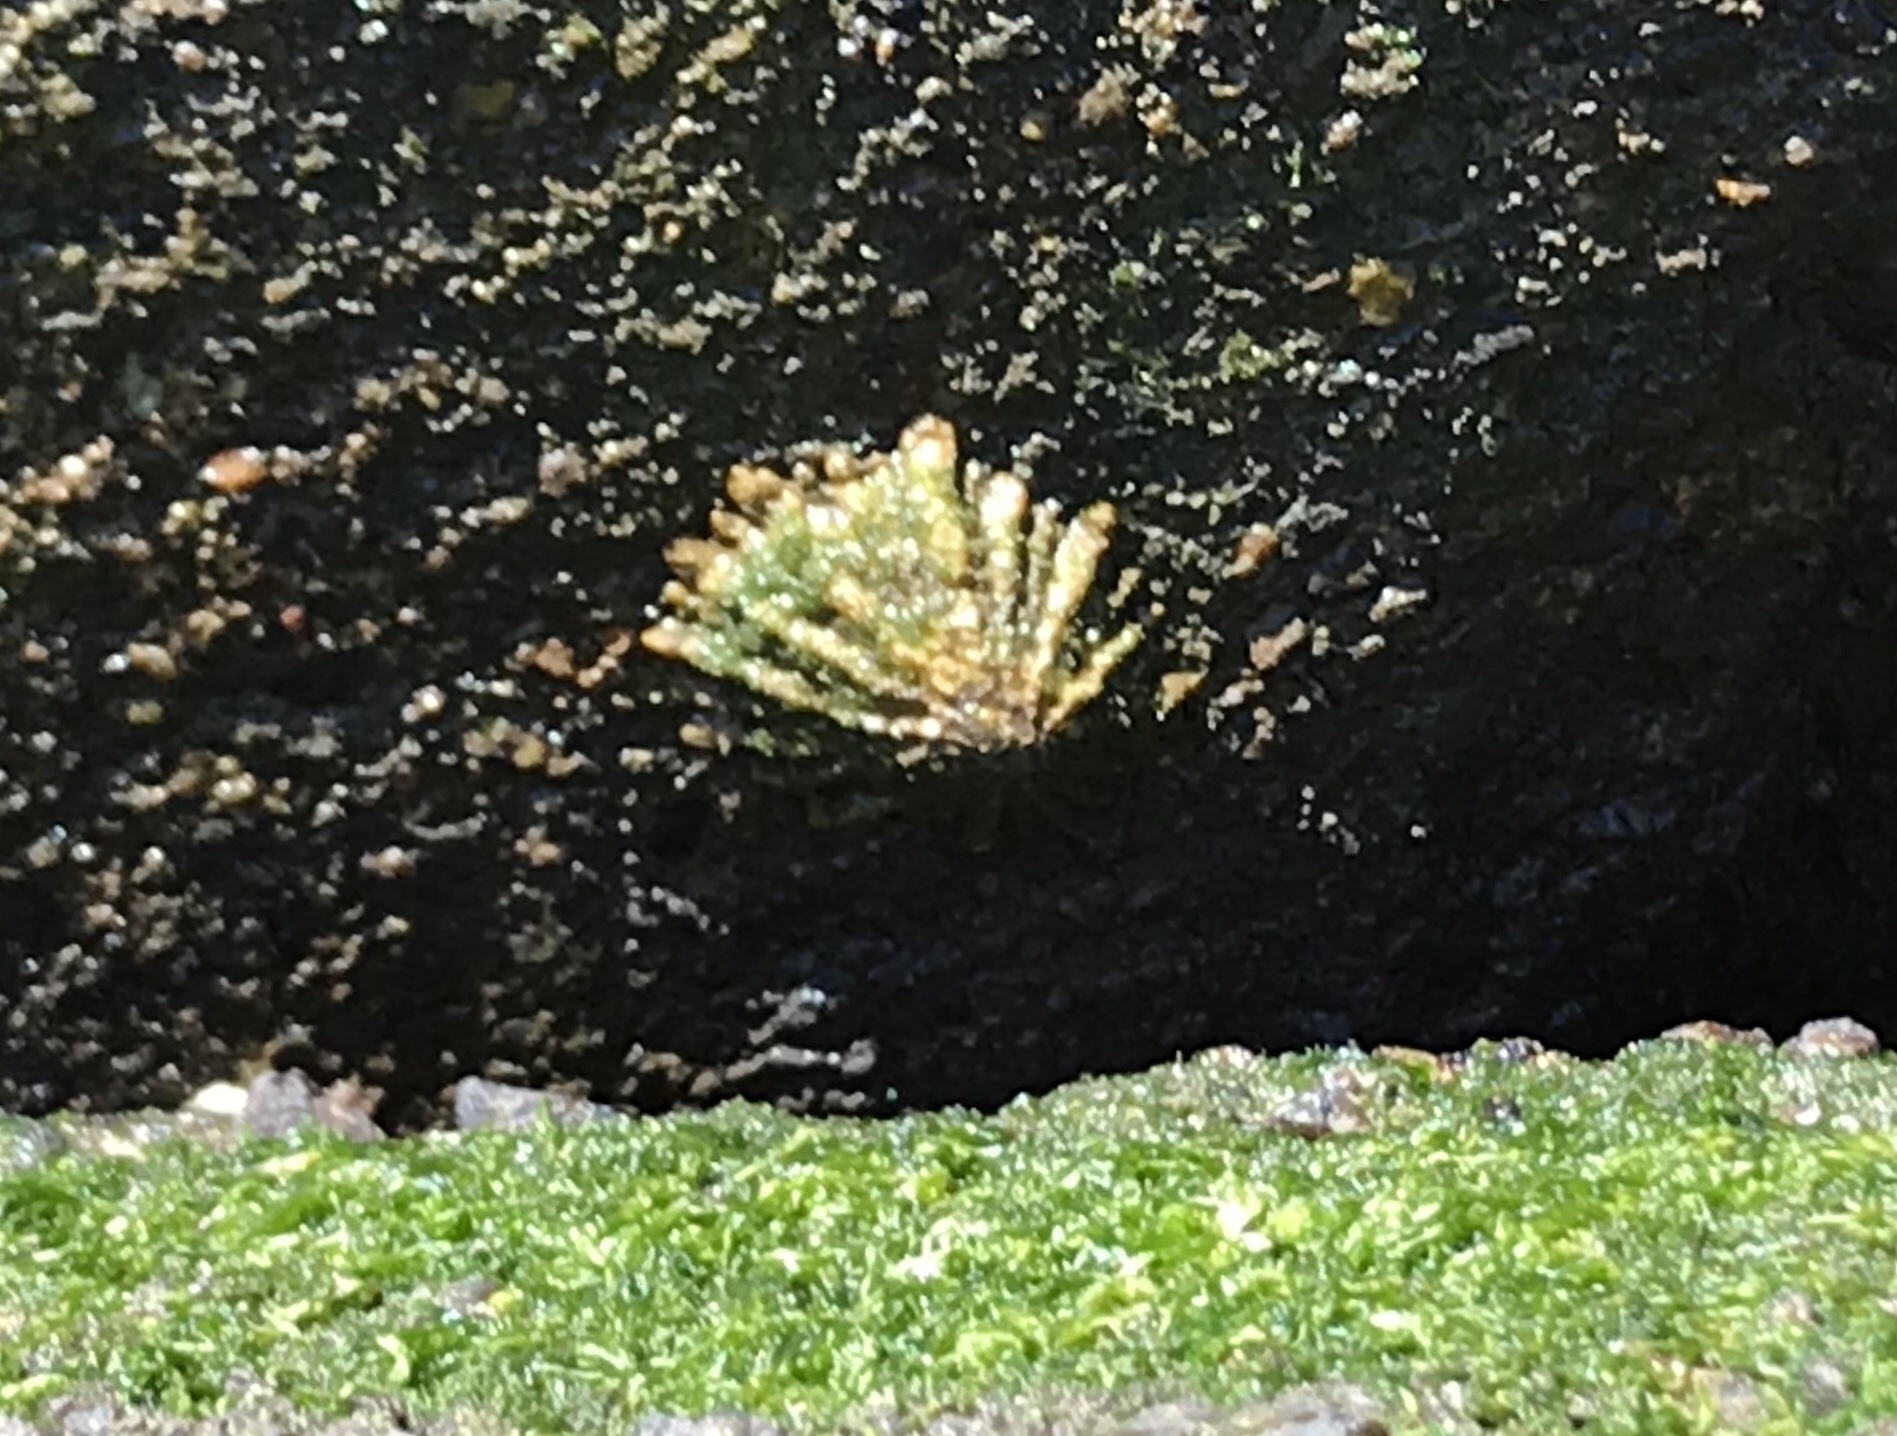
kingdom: Animalia
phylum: Mollusca
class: Gastropoda
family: Lottiidae
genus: Lottia
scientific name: Lottia scabra
